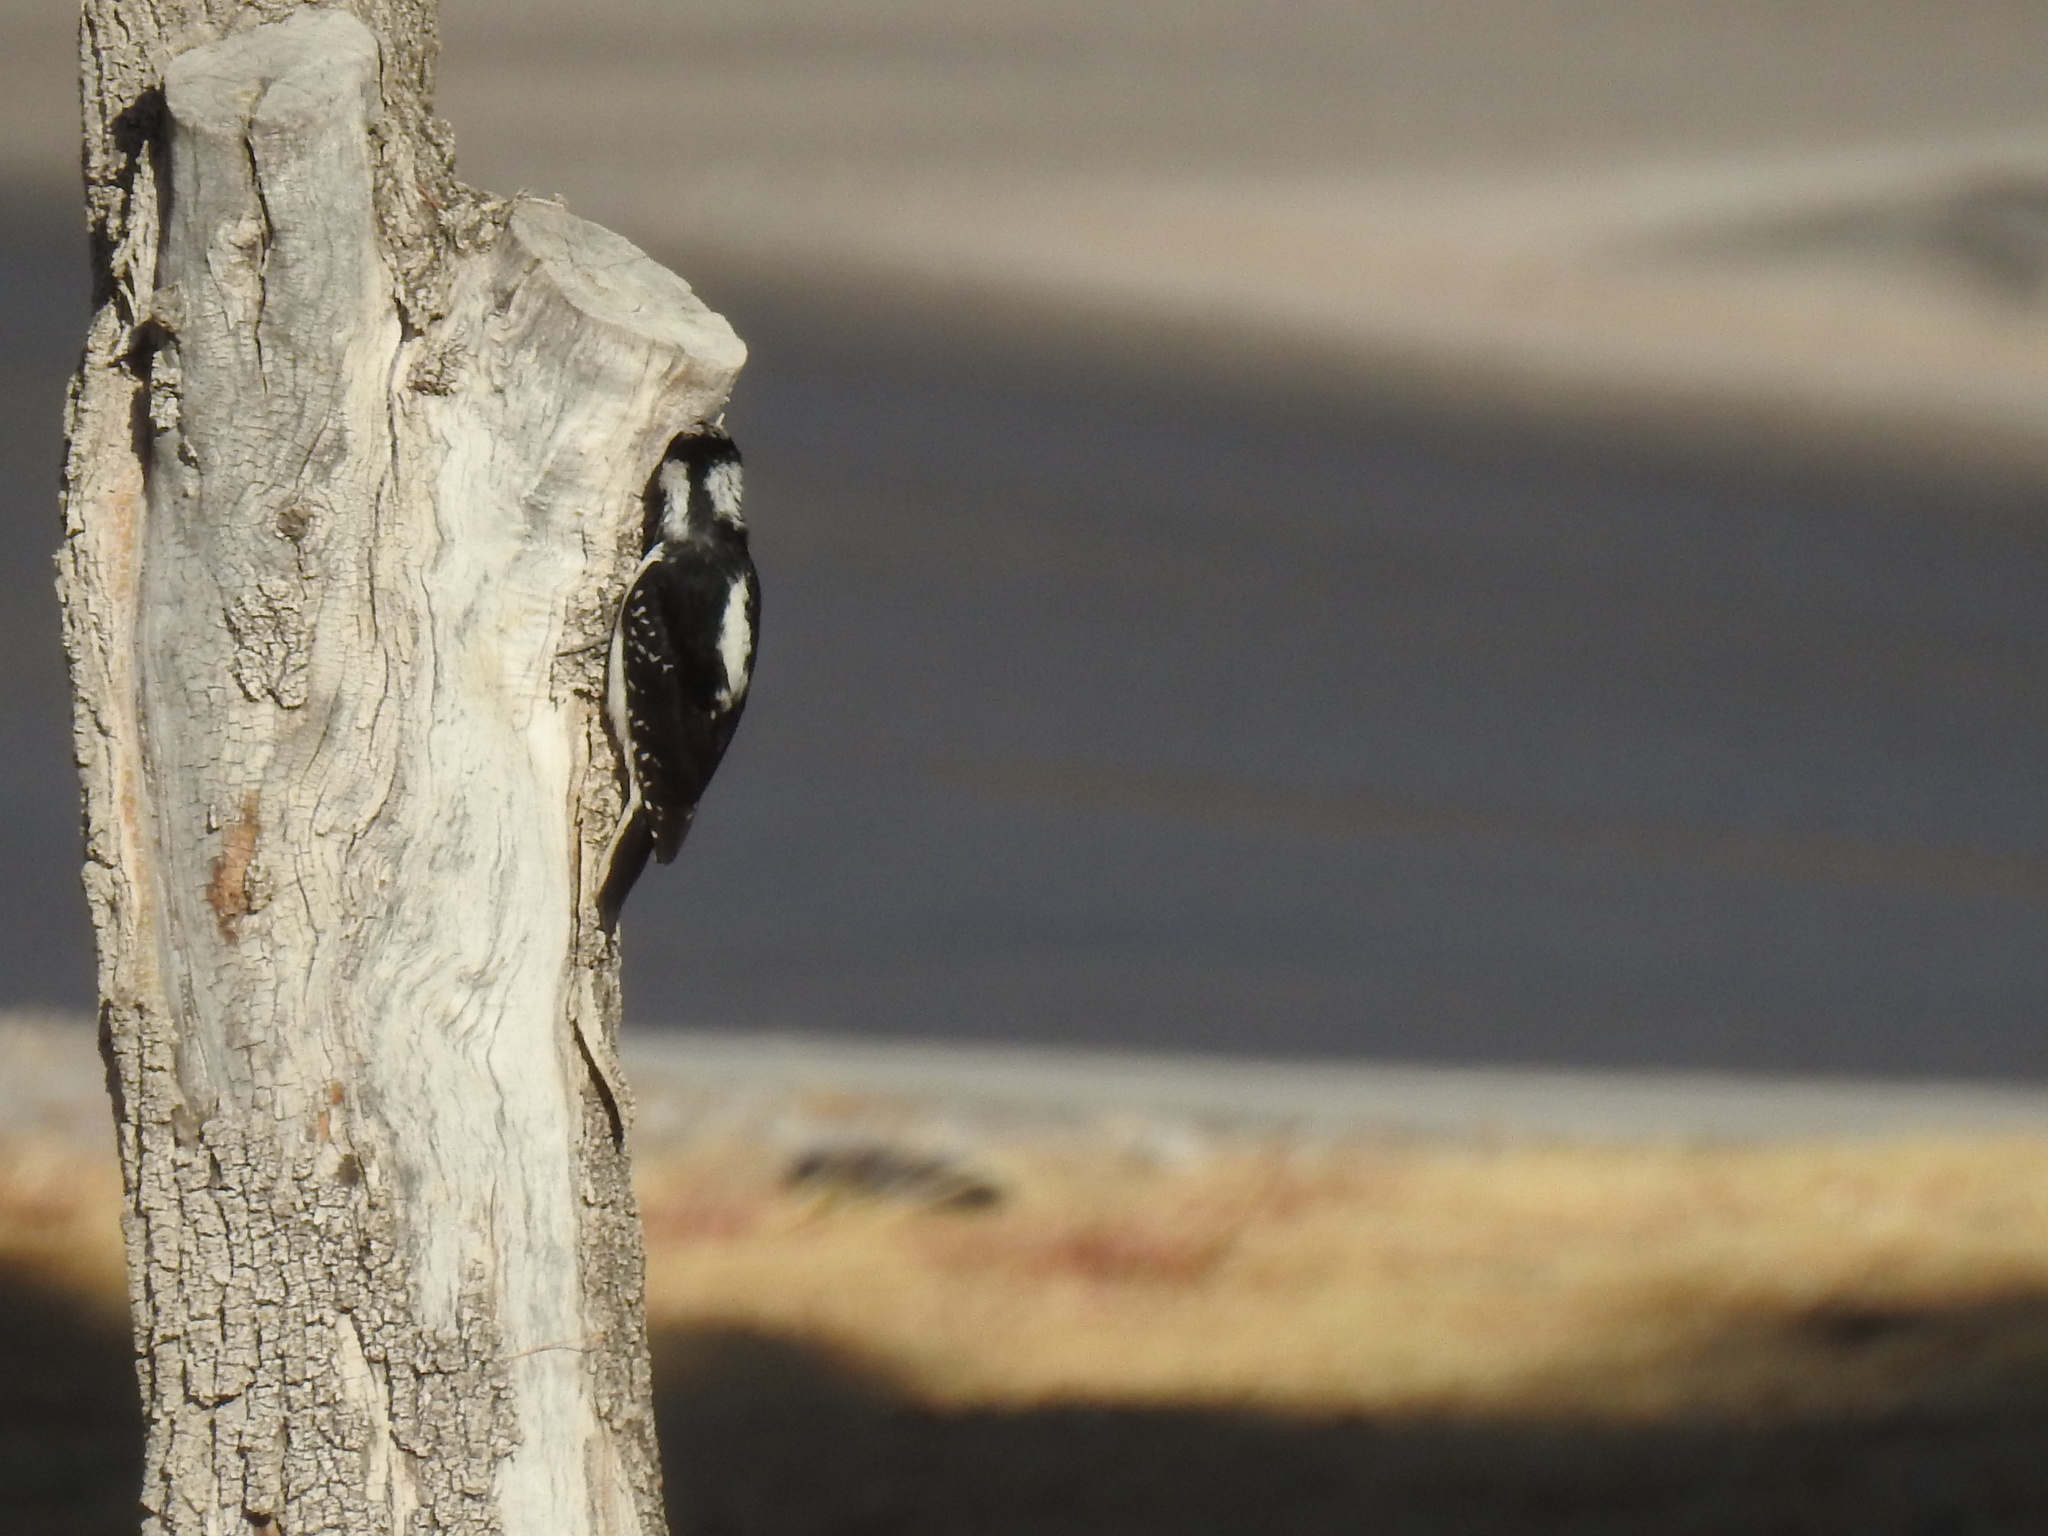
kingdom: Animalia
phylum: Chordata
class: Aves
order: Piciformes
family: Picidae
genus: Leuconotopicus
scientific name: Leuconotopicus villosus
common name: Hairy woodpecker
